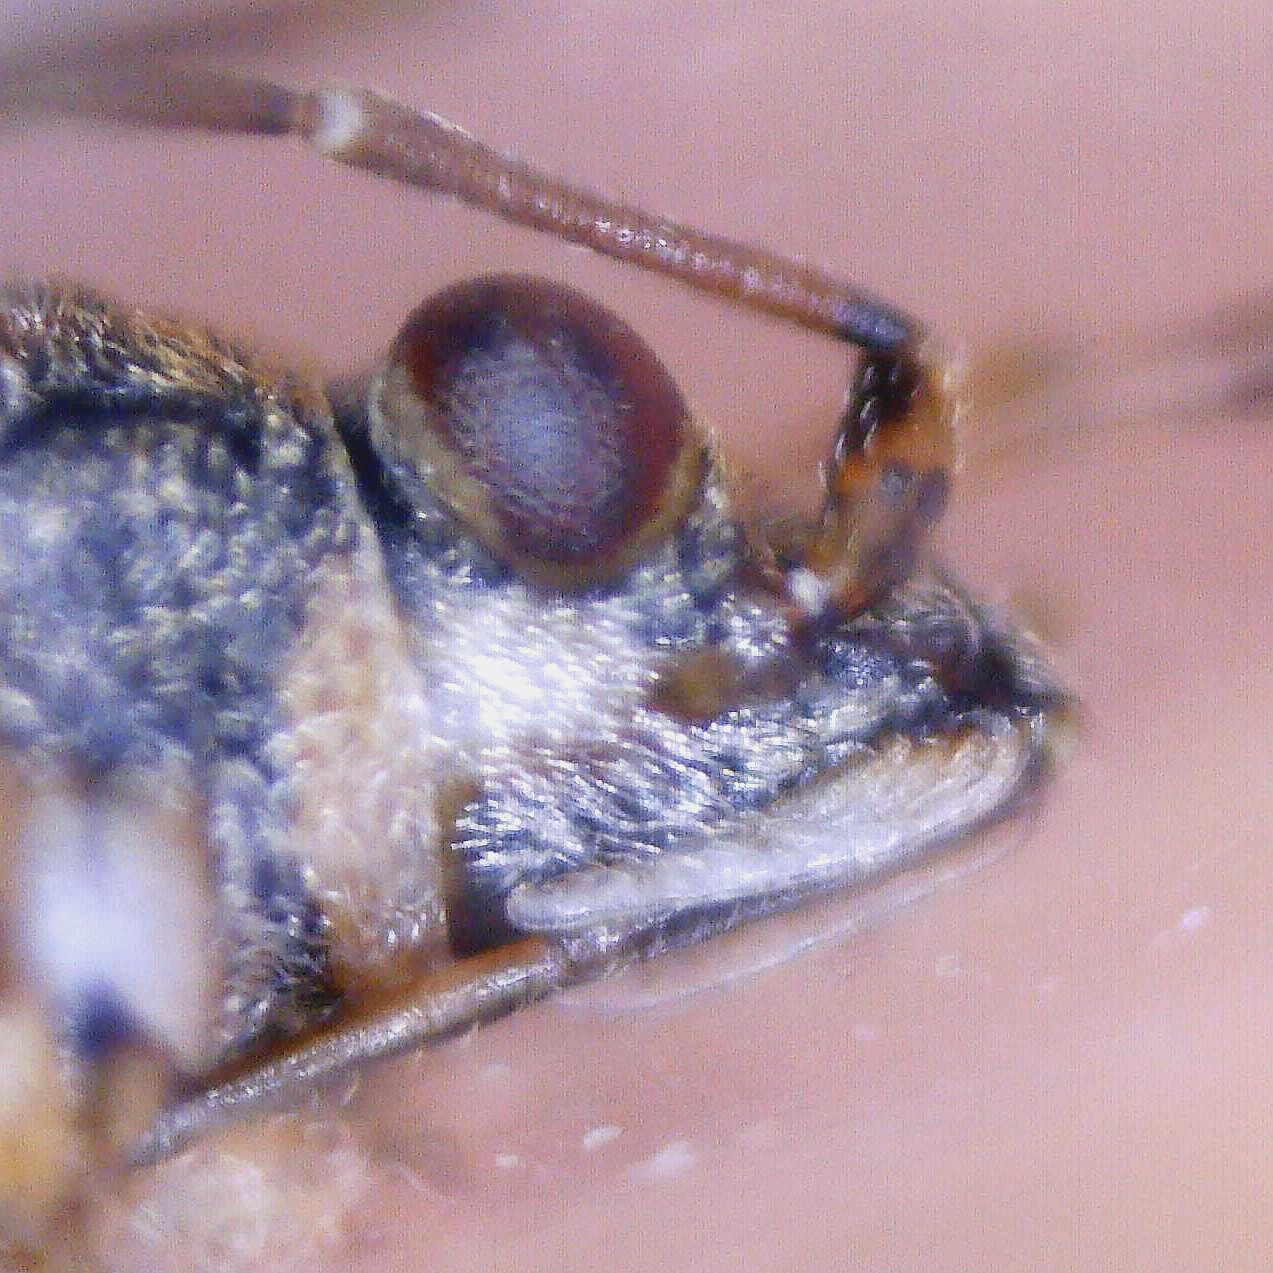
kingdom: Animalia
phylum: Arthropoda
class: Insecta
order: Hemiptera
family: Lygaeidae
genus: Nysius
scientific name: Nysius senecionis
